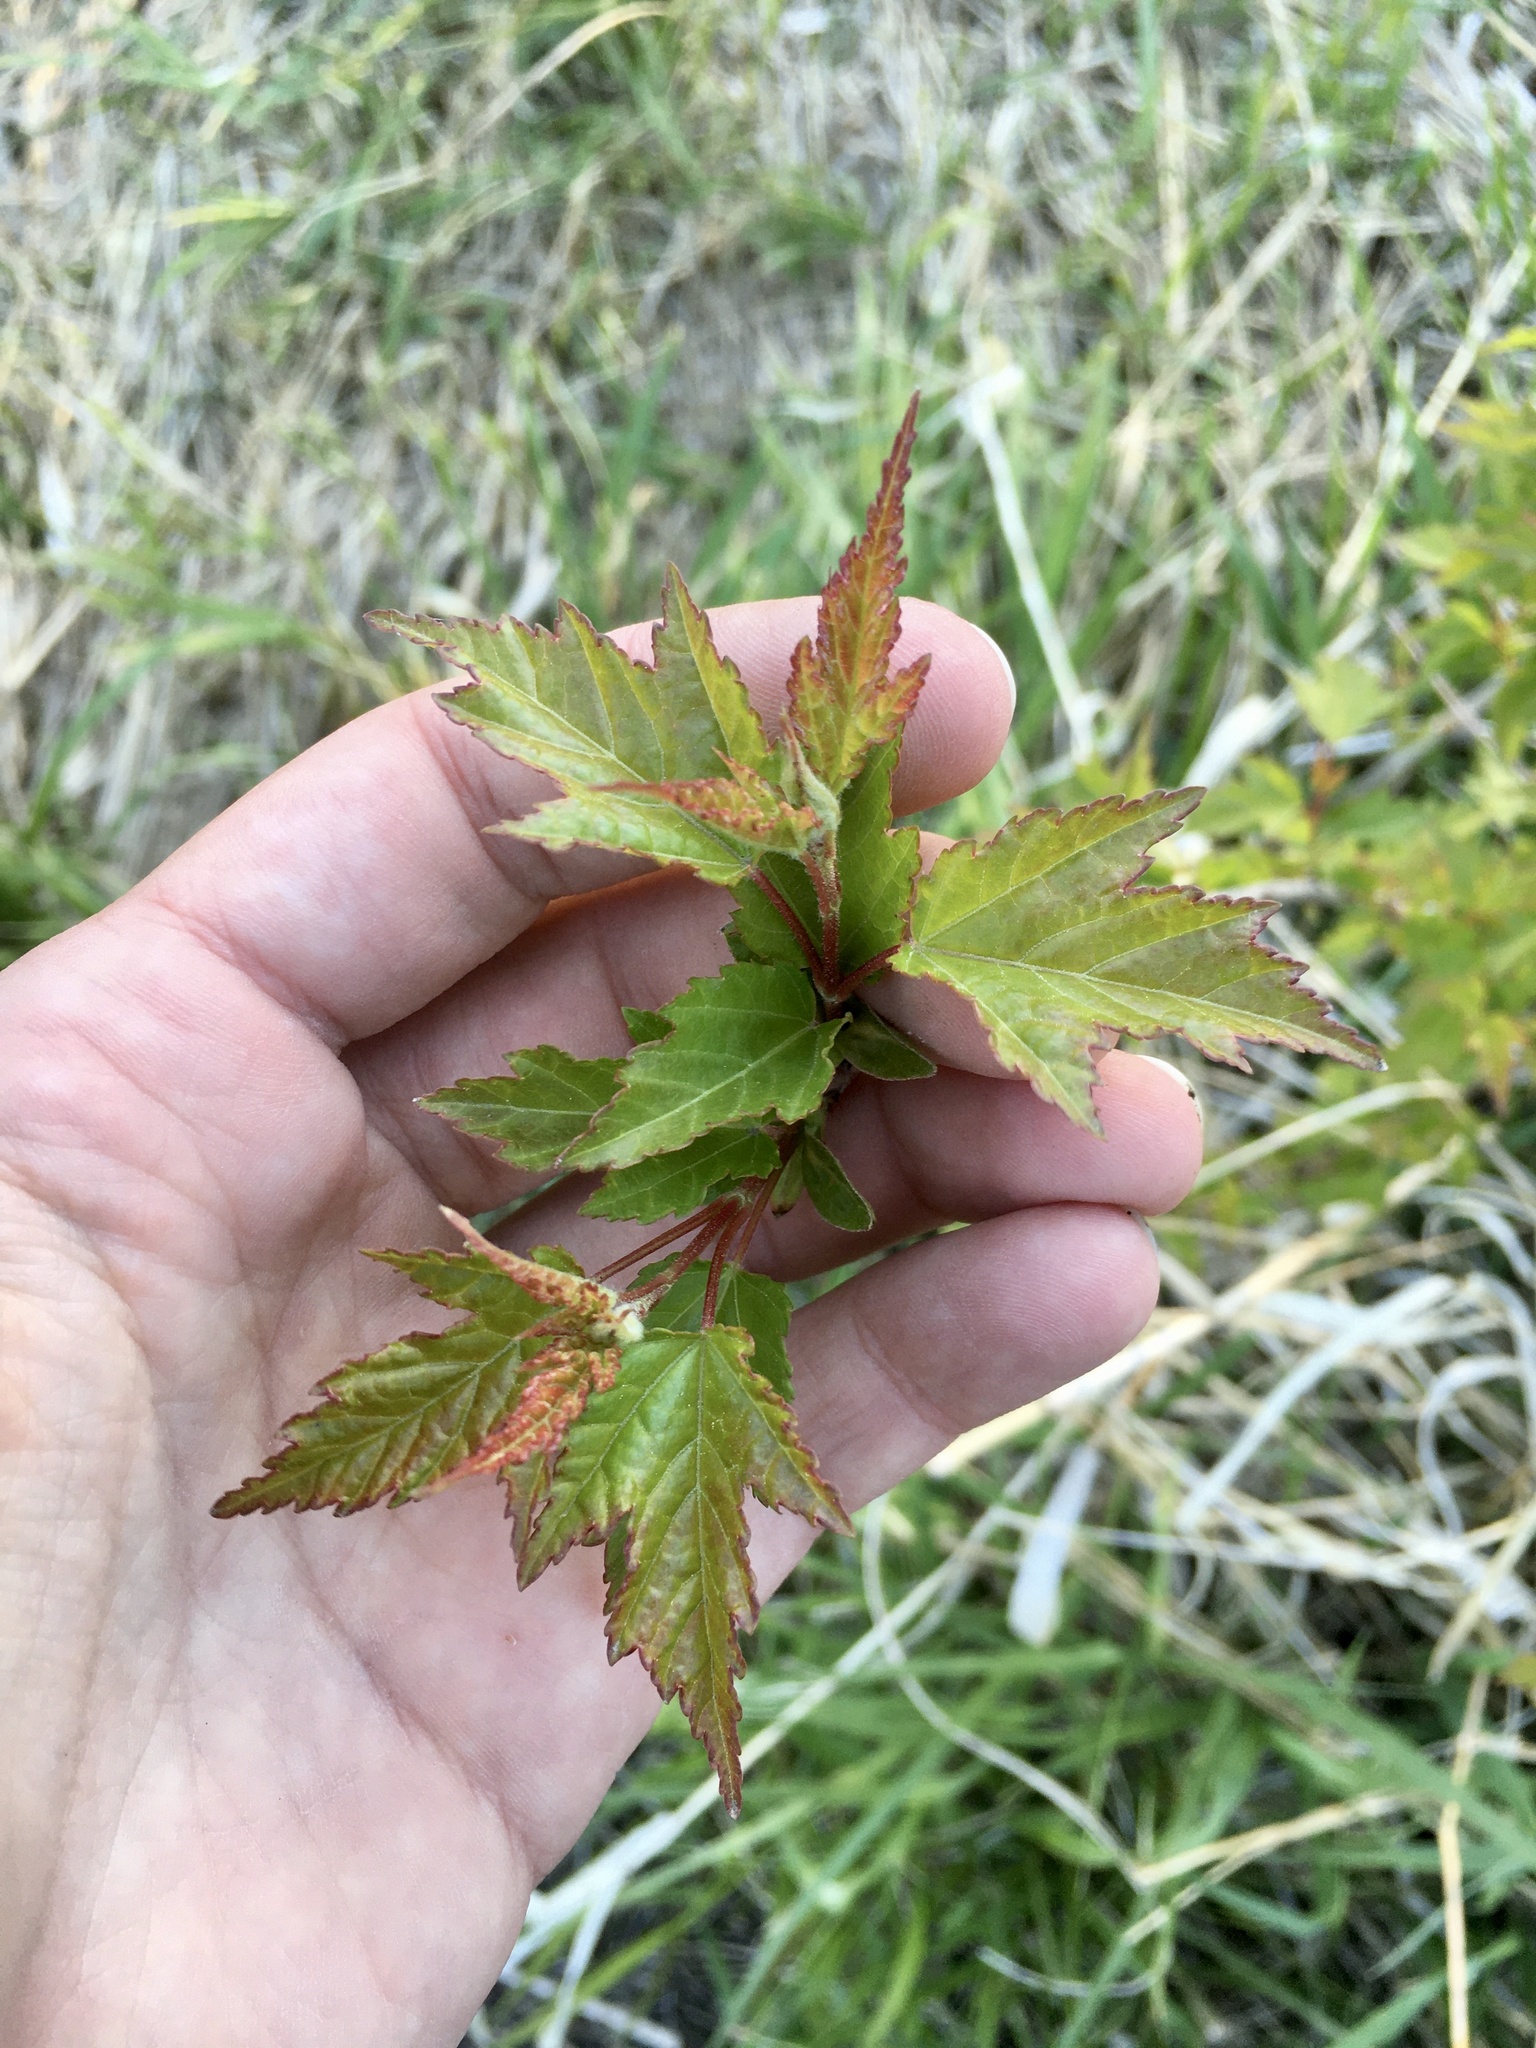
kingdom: Plantae
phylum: Tracheophyta
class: Magnoliopsida
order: Sapindales
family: Sapindaceae
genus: Acer
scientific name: Acer tataricum
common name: Tartar maple
